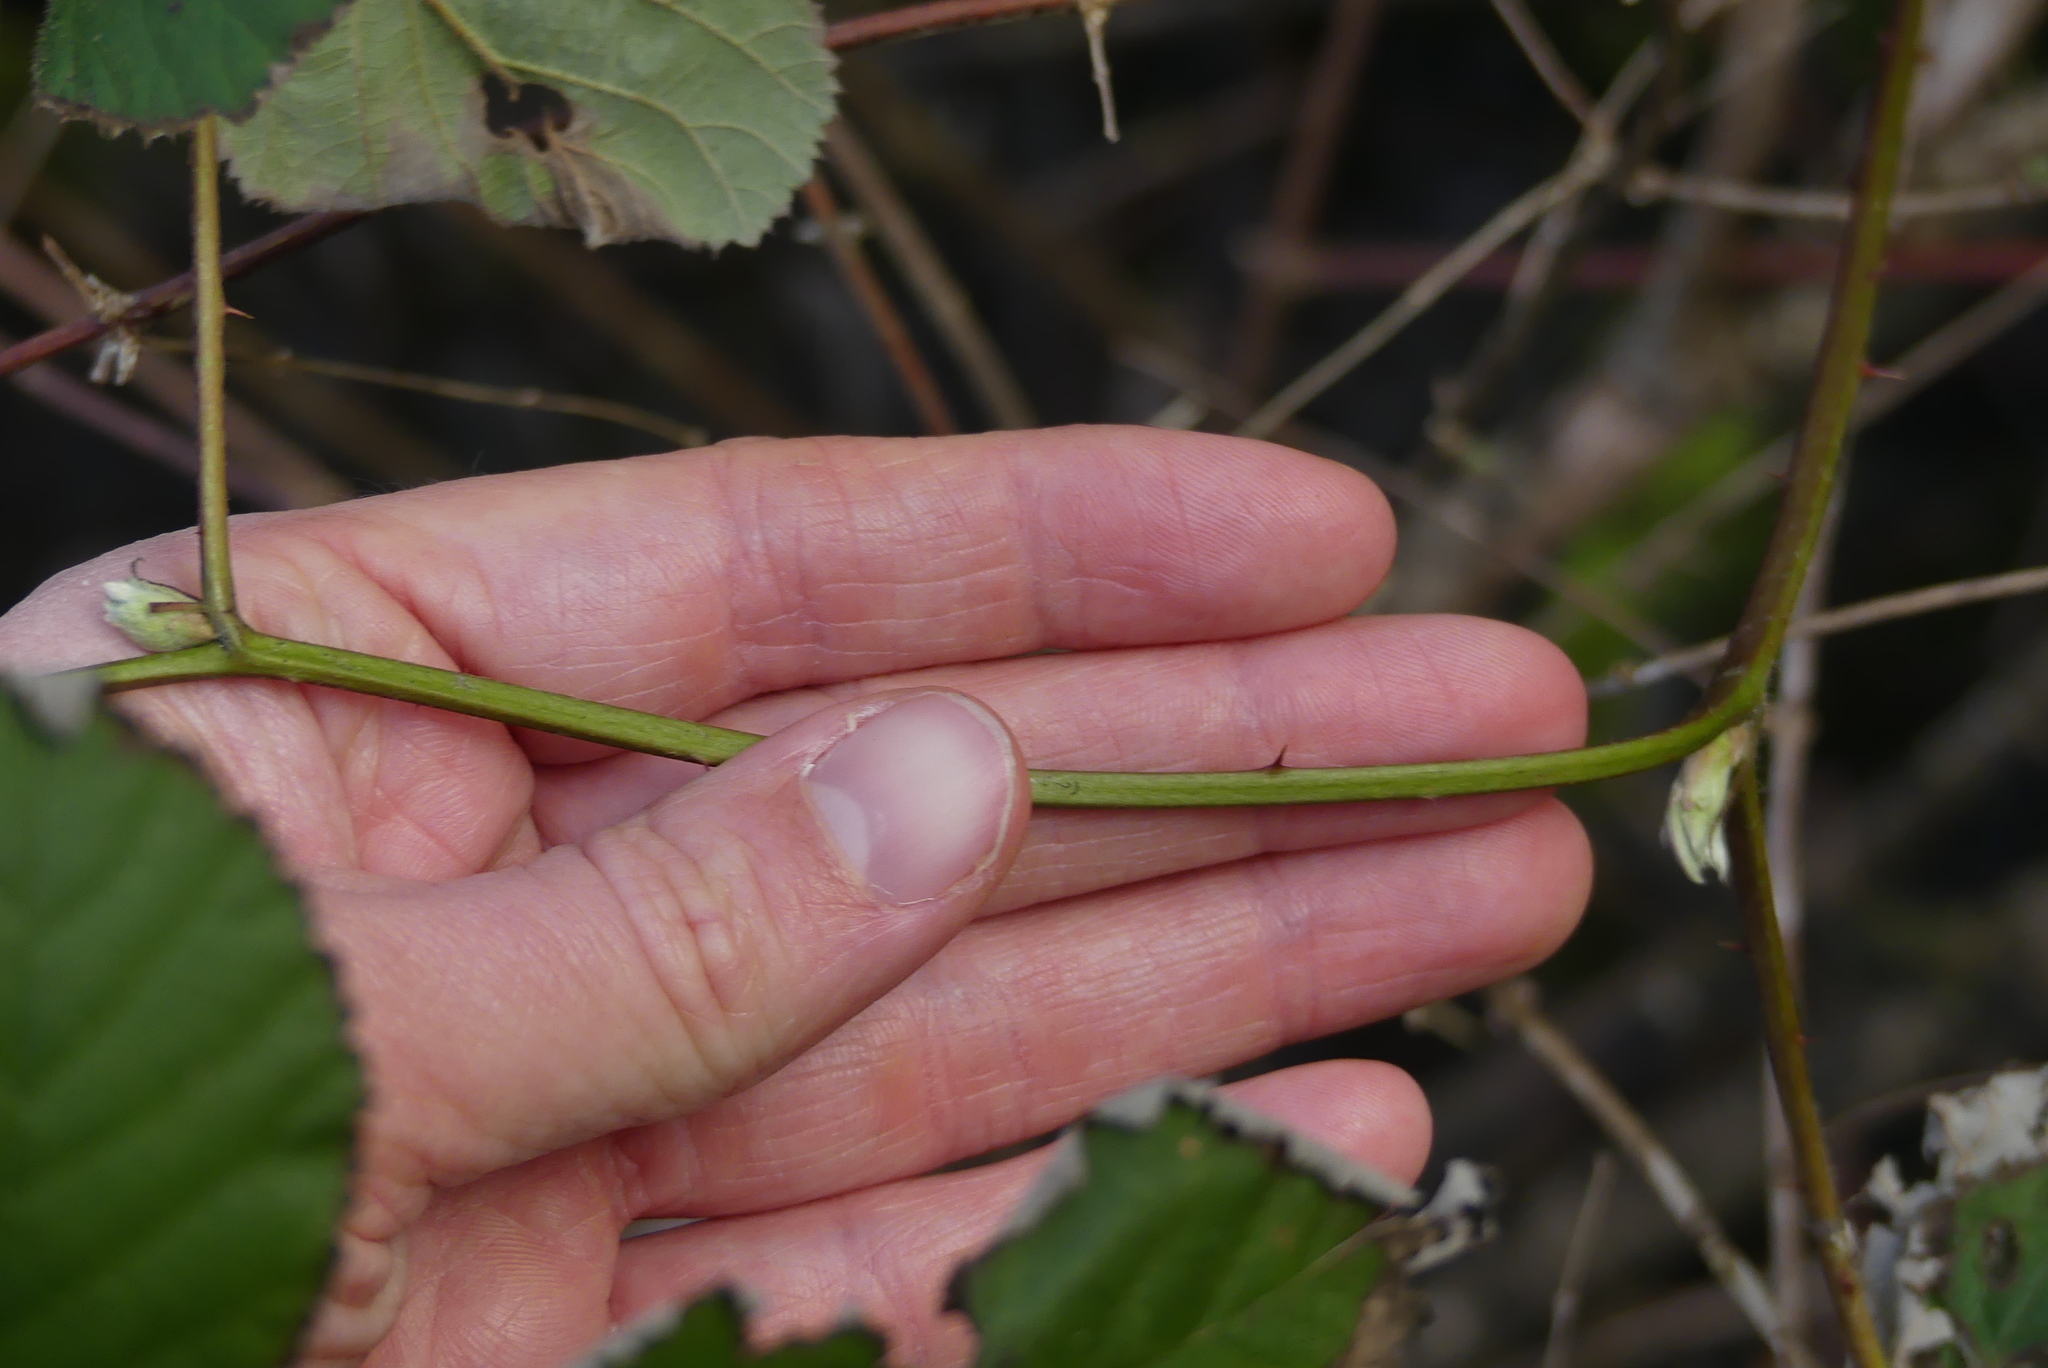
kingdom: Plantae
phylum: Tracheophyta
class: Magnoliopsida
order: Rosales
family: Rosaceae
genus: Rubus
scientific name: Rubus bifrons
